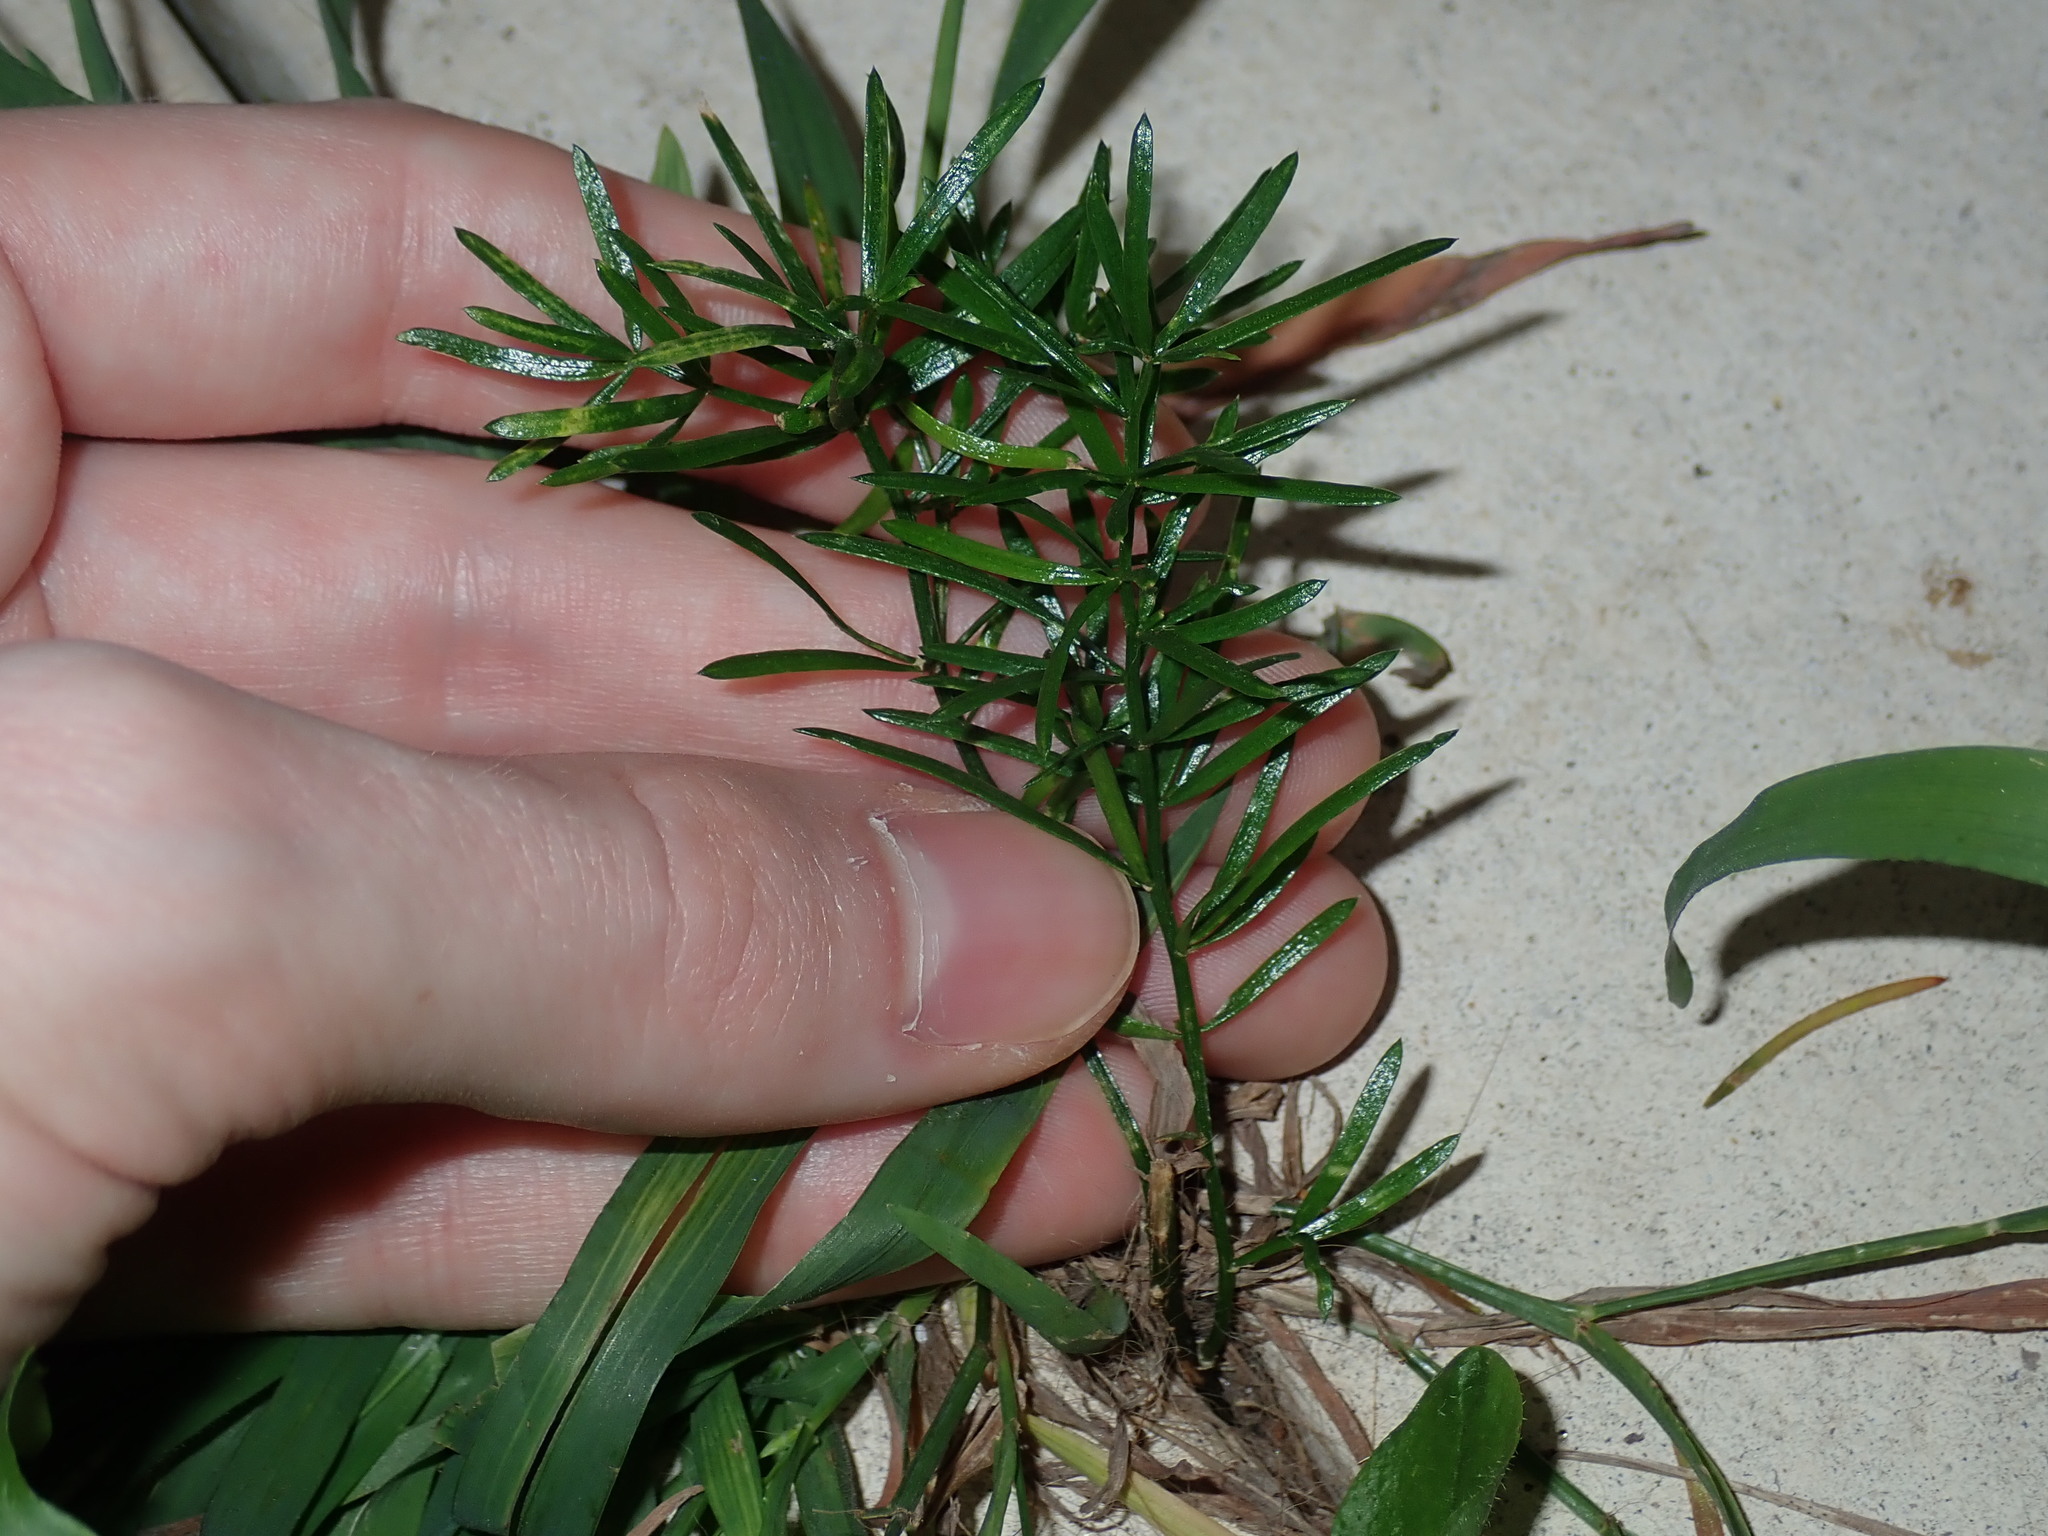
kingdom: Plantae
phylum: Tracheophyta
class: Liliopsida
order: Asparagales
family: Asparagaceae
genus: Asparagus
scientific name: Asparagus aethiopicus
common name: Sprenger's asparagus fern
